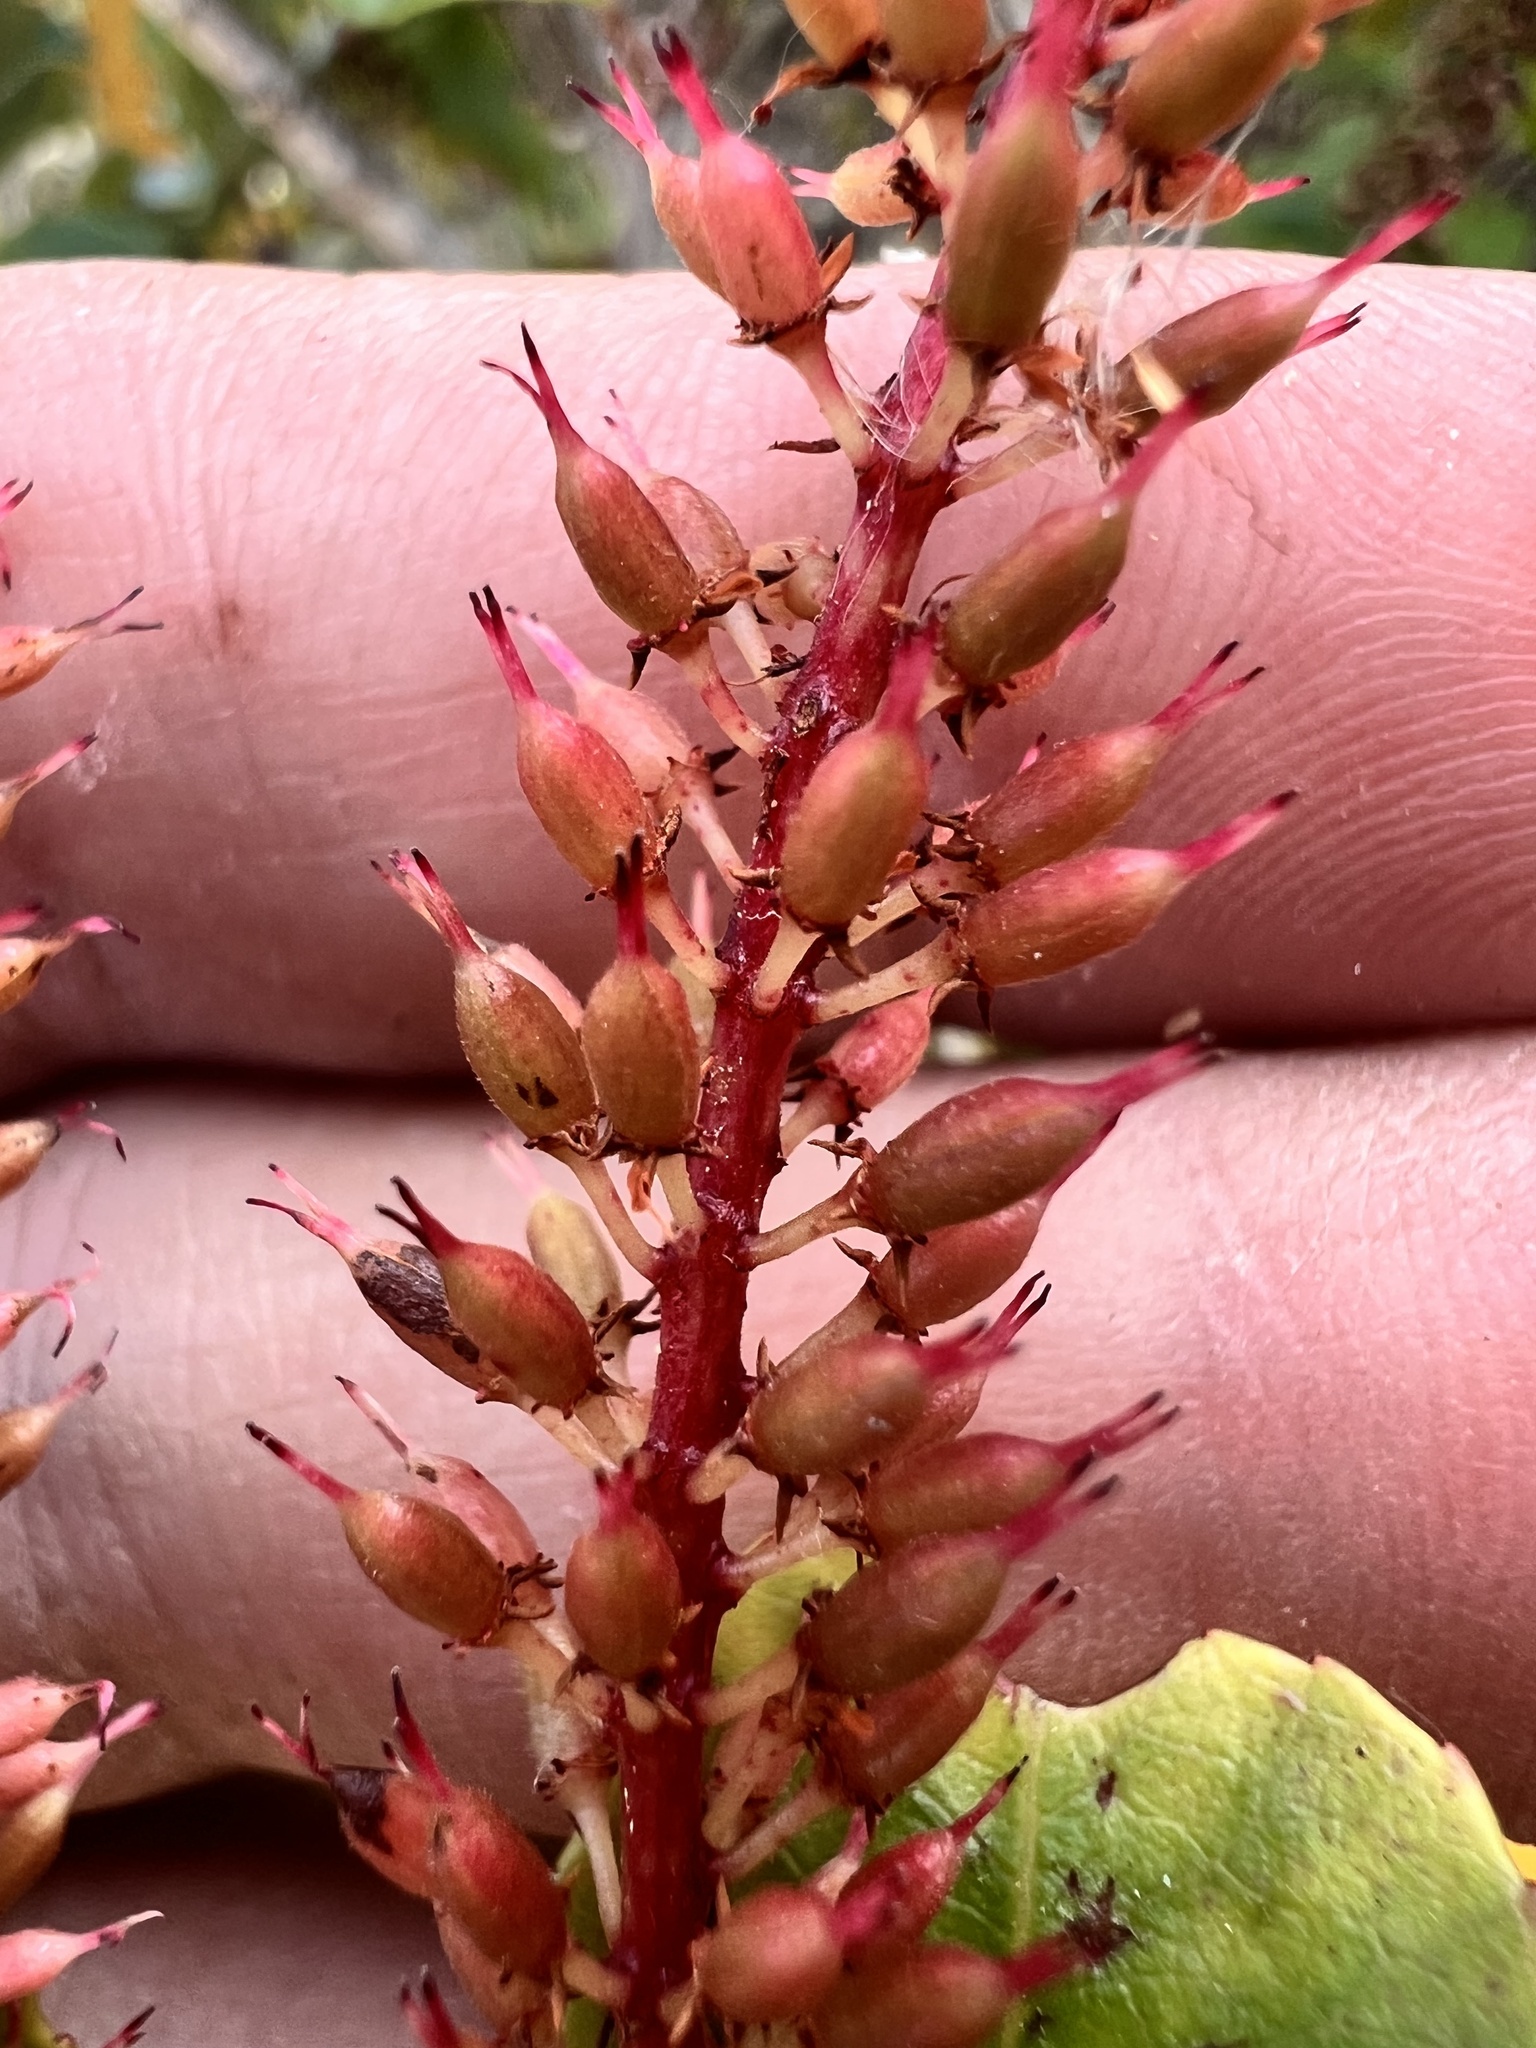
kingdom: Plantae
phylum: Tracheophyta
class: Magnoliopsida
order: Oxalidales
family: Cunoniaceae
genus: Pterophylla
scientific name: Pterophylla racemosa
